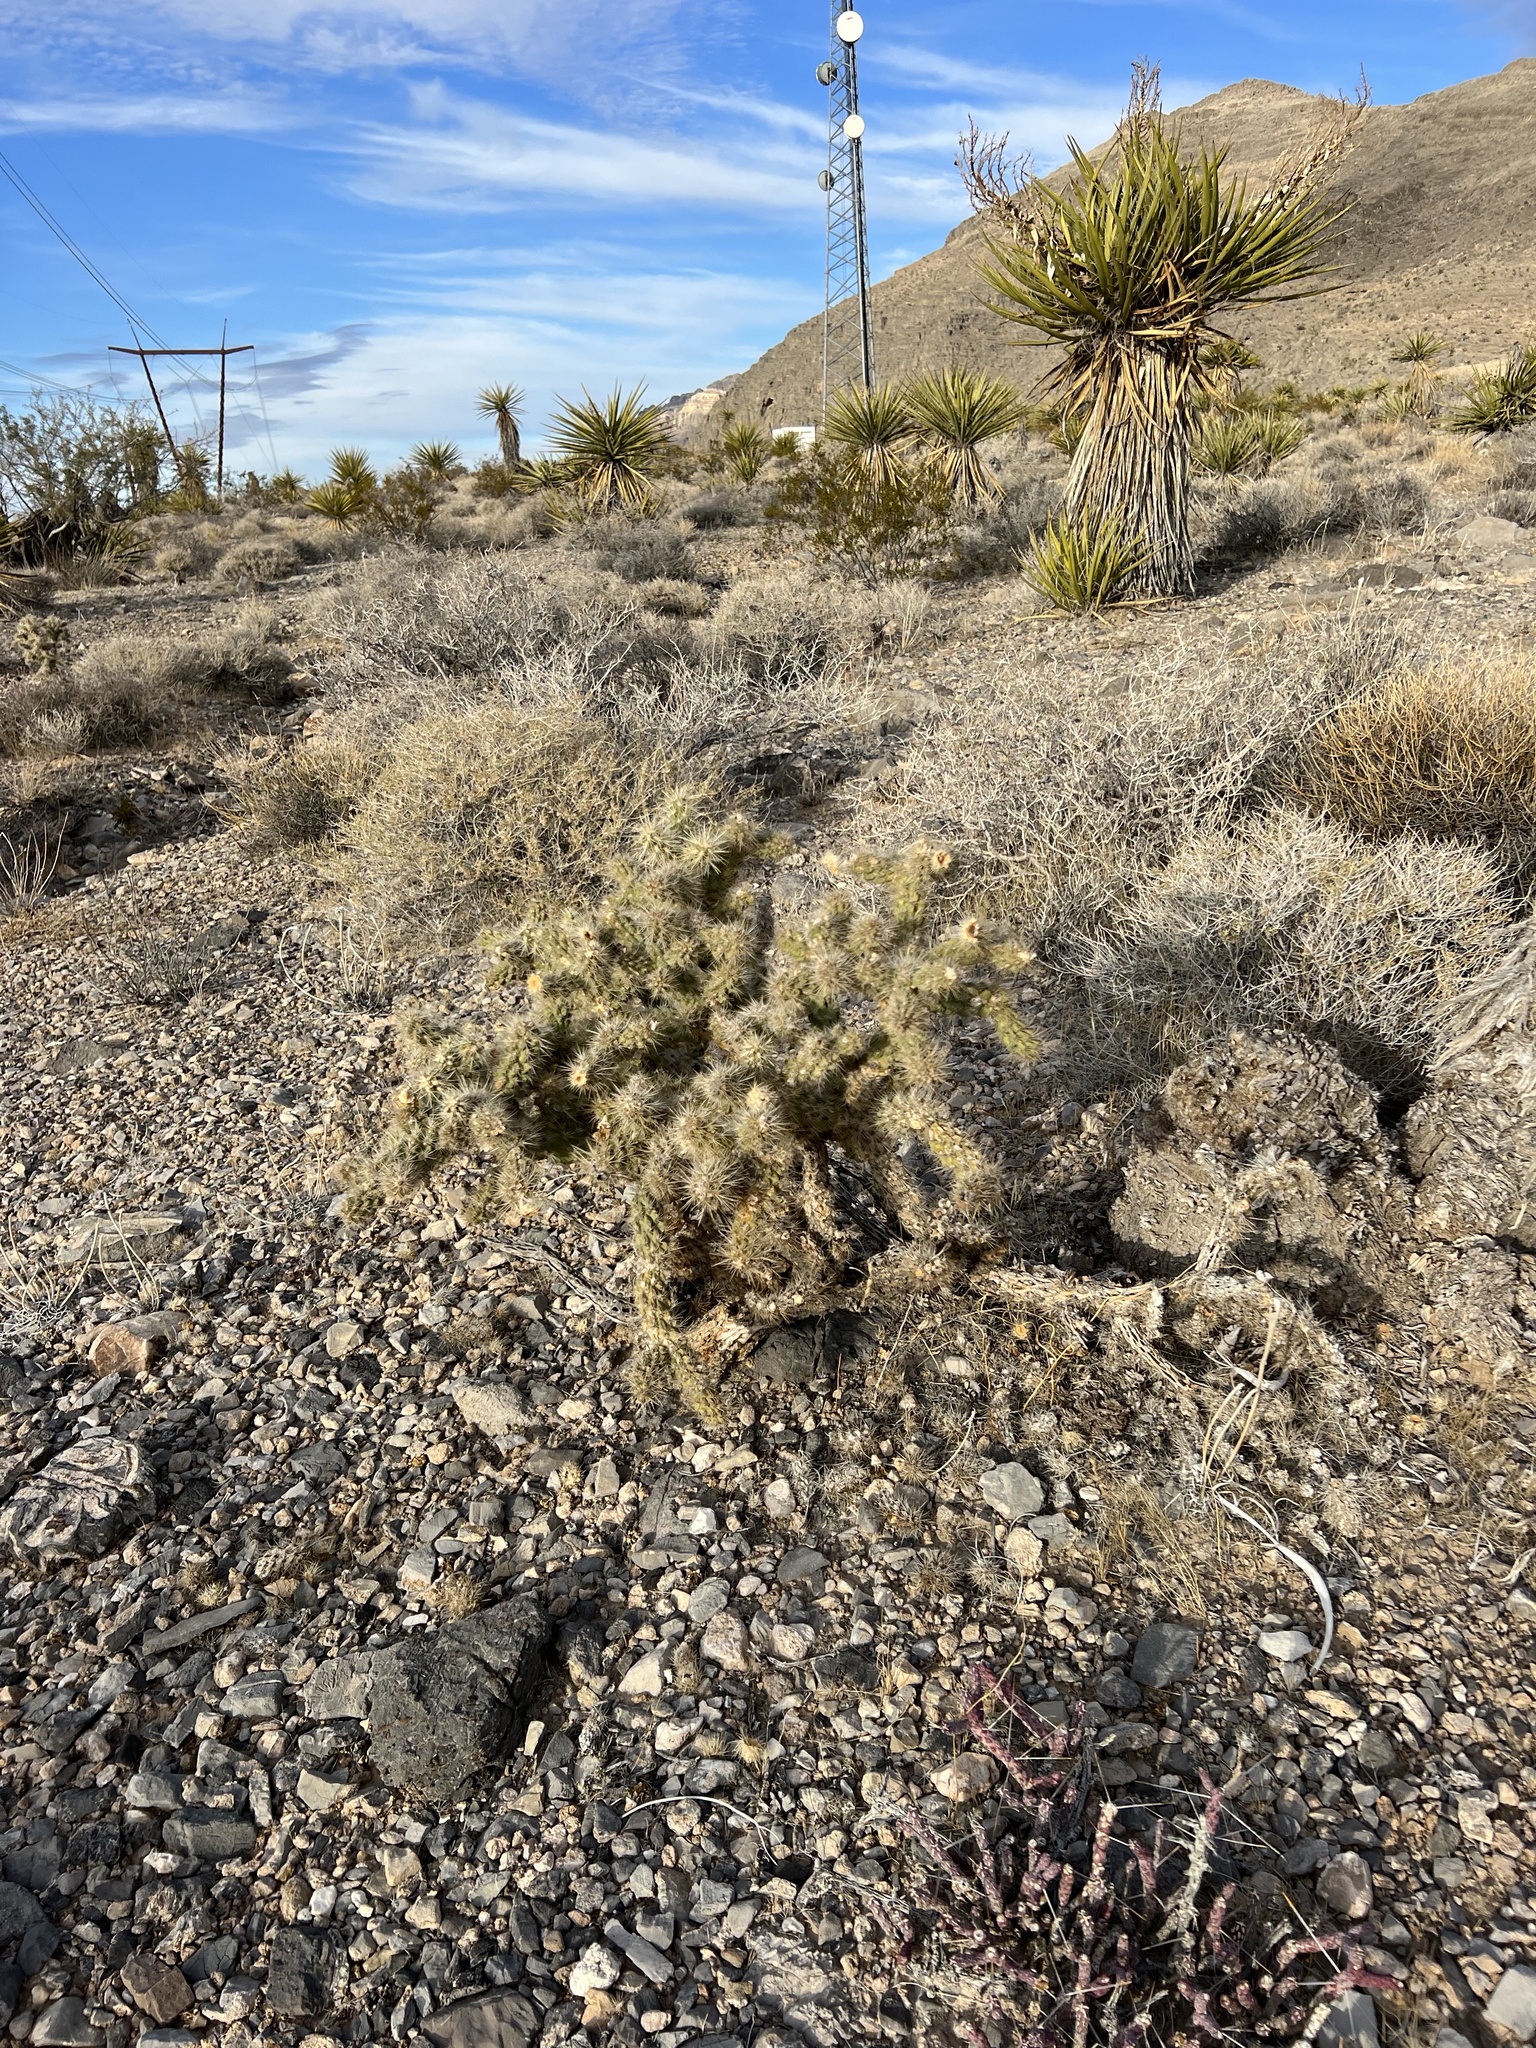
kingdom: Plantae
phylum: Tracheophyta
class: Magnoliopsida
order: Caryophyllales
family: Cactaceae
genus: Cylindropuntia
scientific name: Cylindropuntia echinocarpa
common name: Ground cholla
